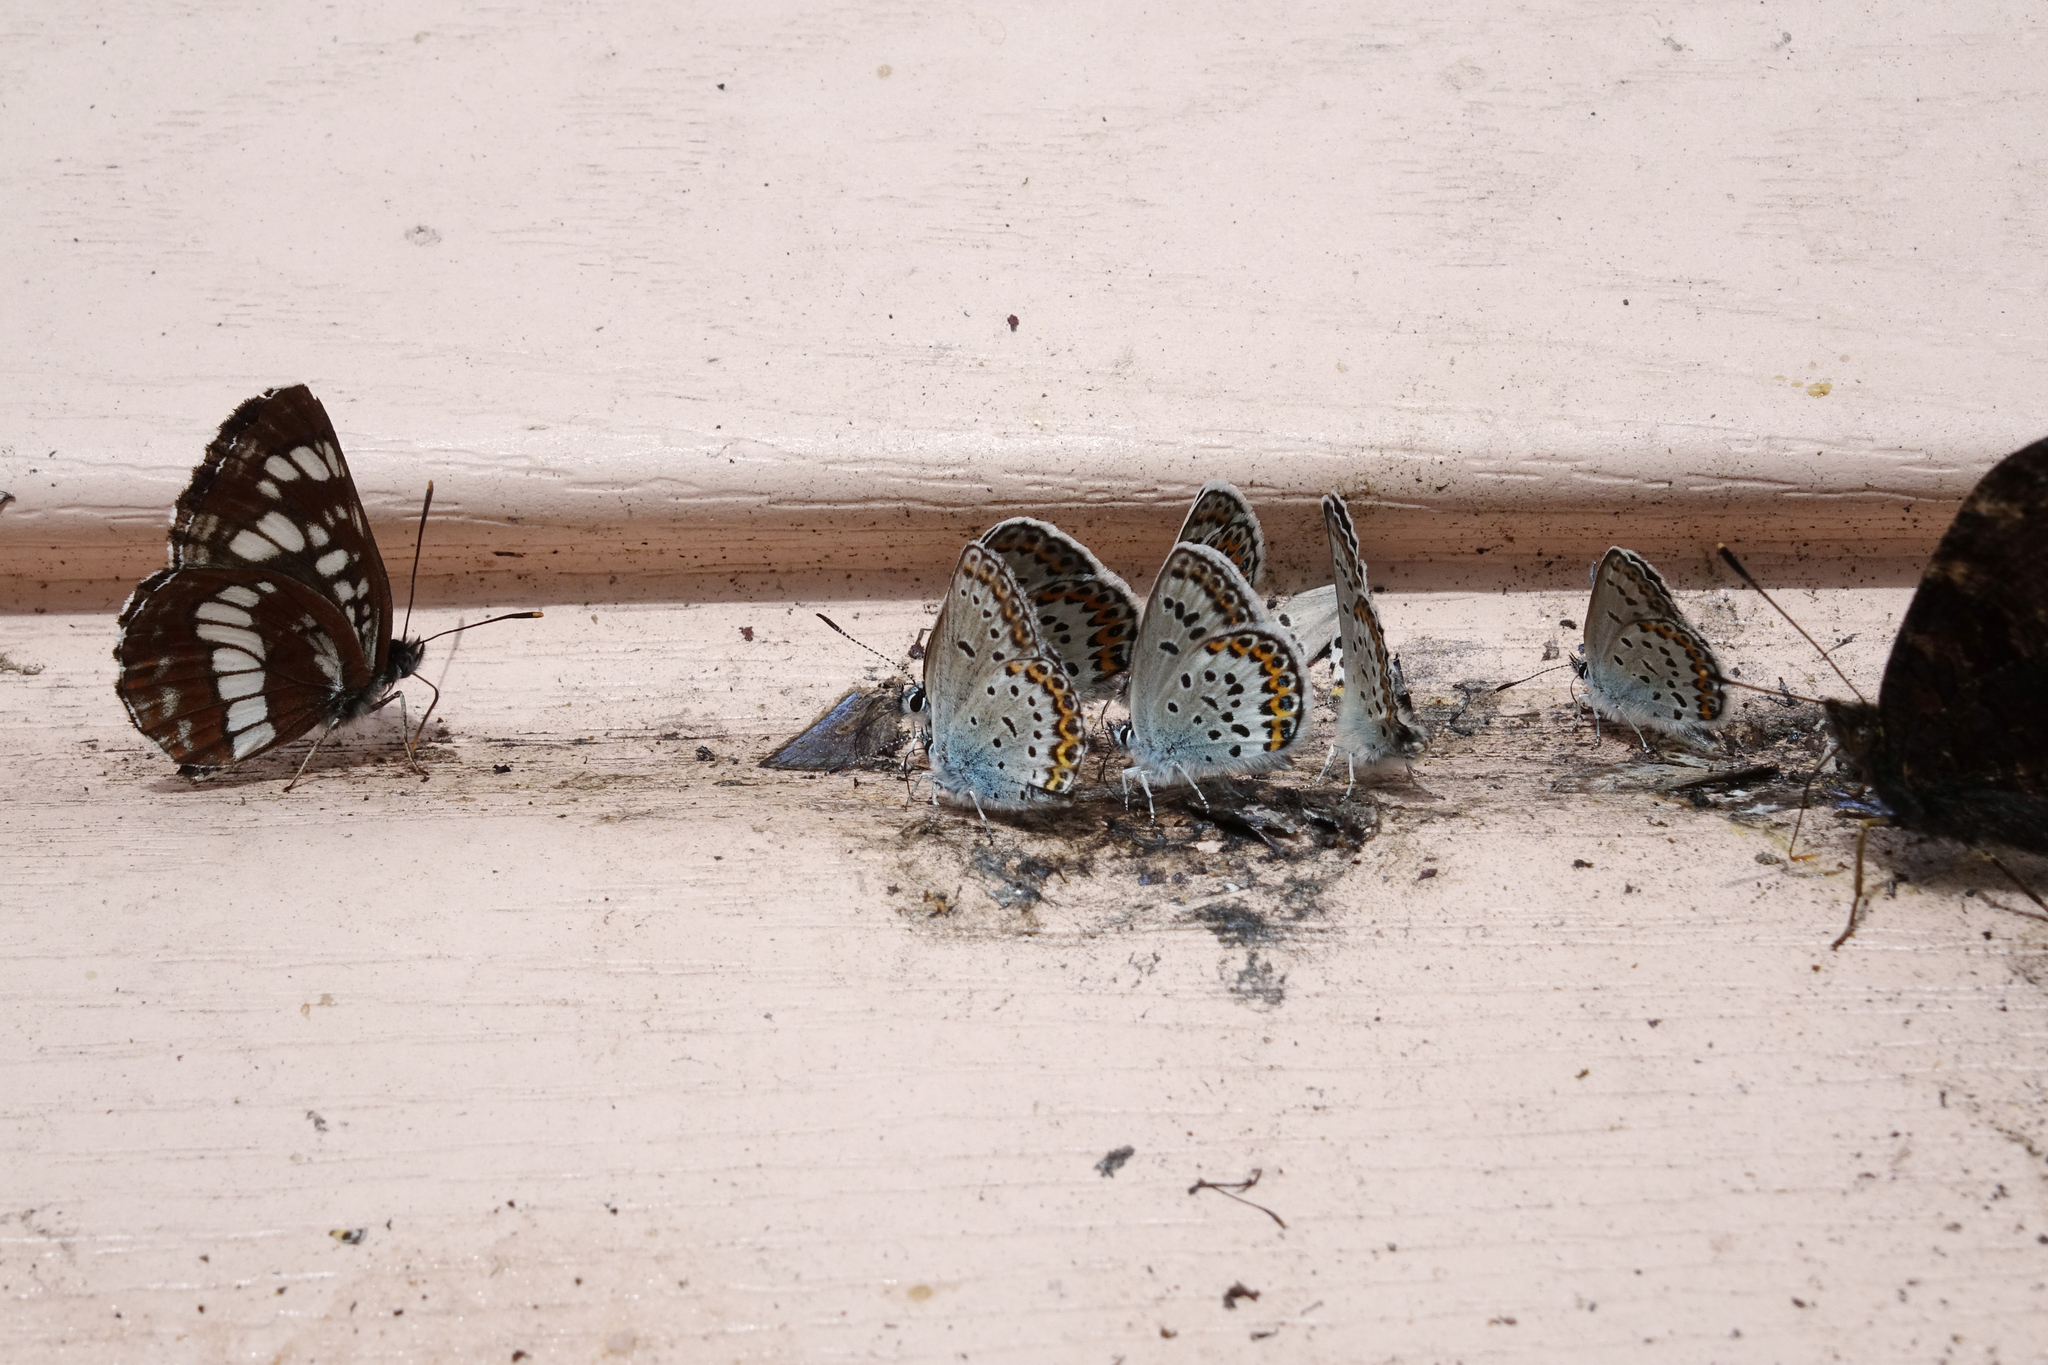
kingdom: Animalia
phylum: Arthropoda
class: Insecta
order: Lepidoptera
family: Nymphalidae
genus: Neptis
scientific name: Neptis rivularis
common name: Hungarian glider
